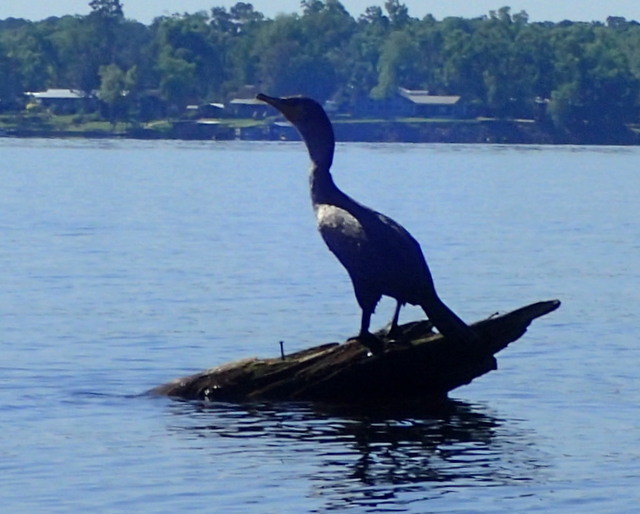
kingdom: Animalia
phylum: Chordata
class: Aves
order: Suliformes
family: Phalacrocoracidae
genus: Phalacrocorax
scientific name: Phalacrocorax auritus
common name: Double-crested cormorant
